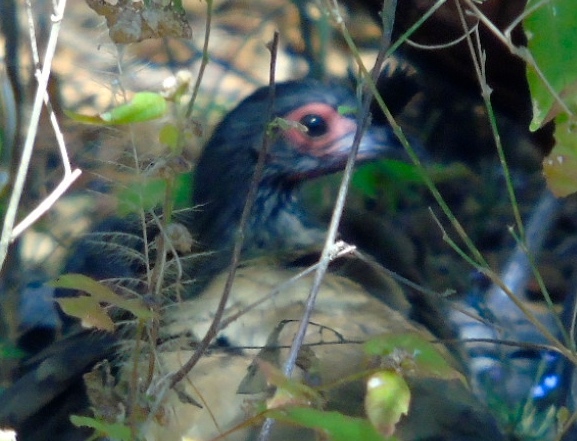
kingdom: Animalia
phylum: Chordata
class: Aves
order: Galliformes
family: Cracidae
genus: Ortalis
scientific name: Ortalis wagleri
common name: Rufous-bellied chachalaca
